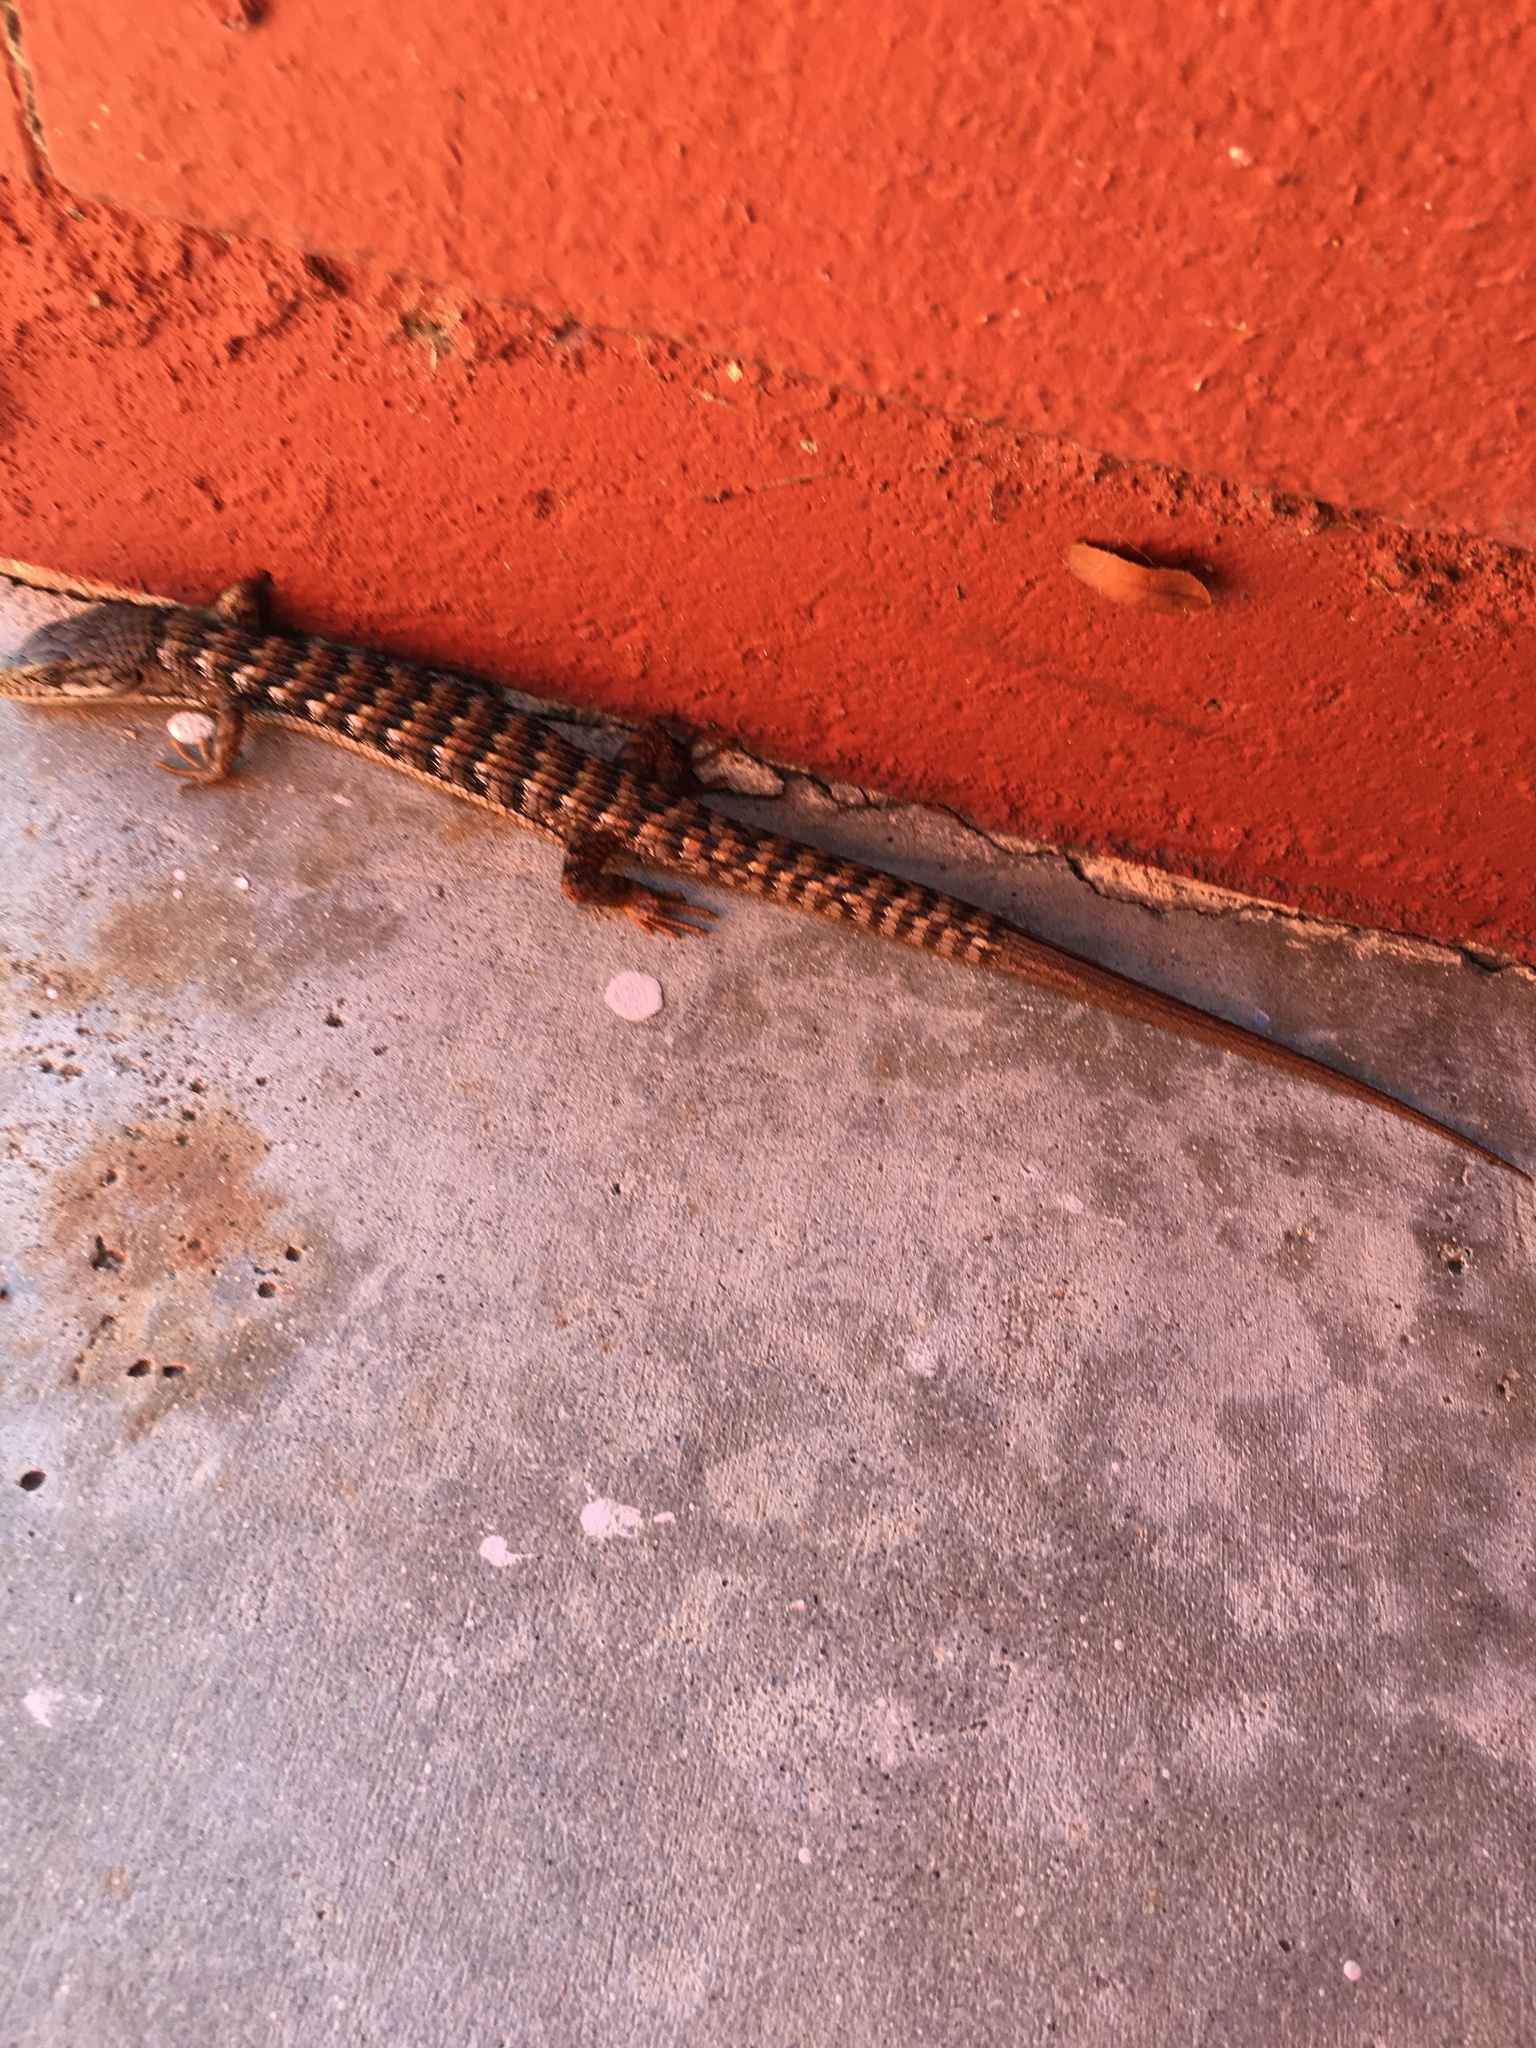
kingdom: Animalia
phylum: Chordata
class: Squamata
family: Anguidae
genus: Elgaria
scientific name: Elgaria multicarinata
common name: Southern alligator lizard
